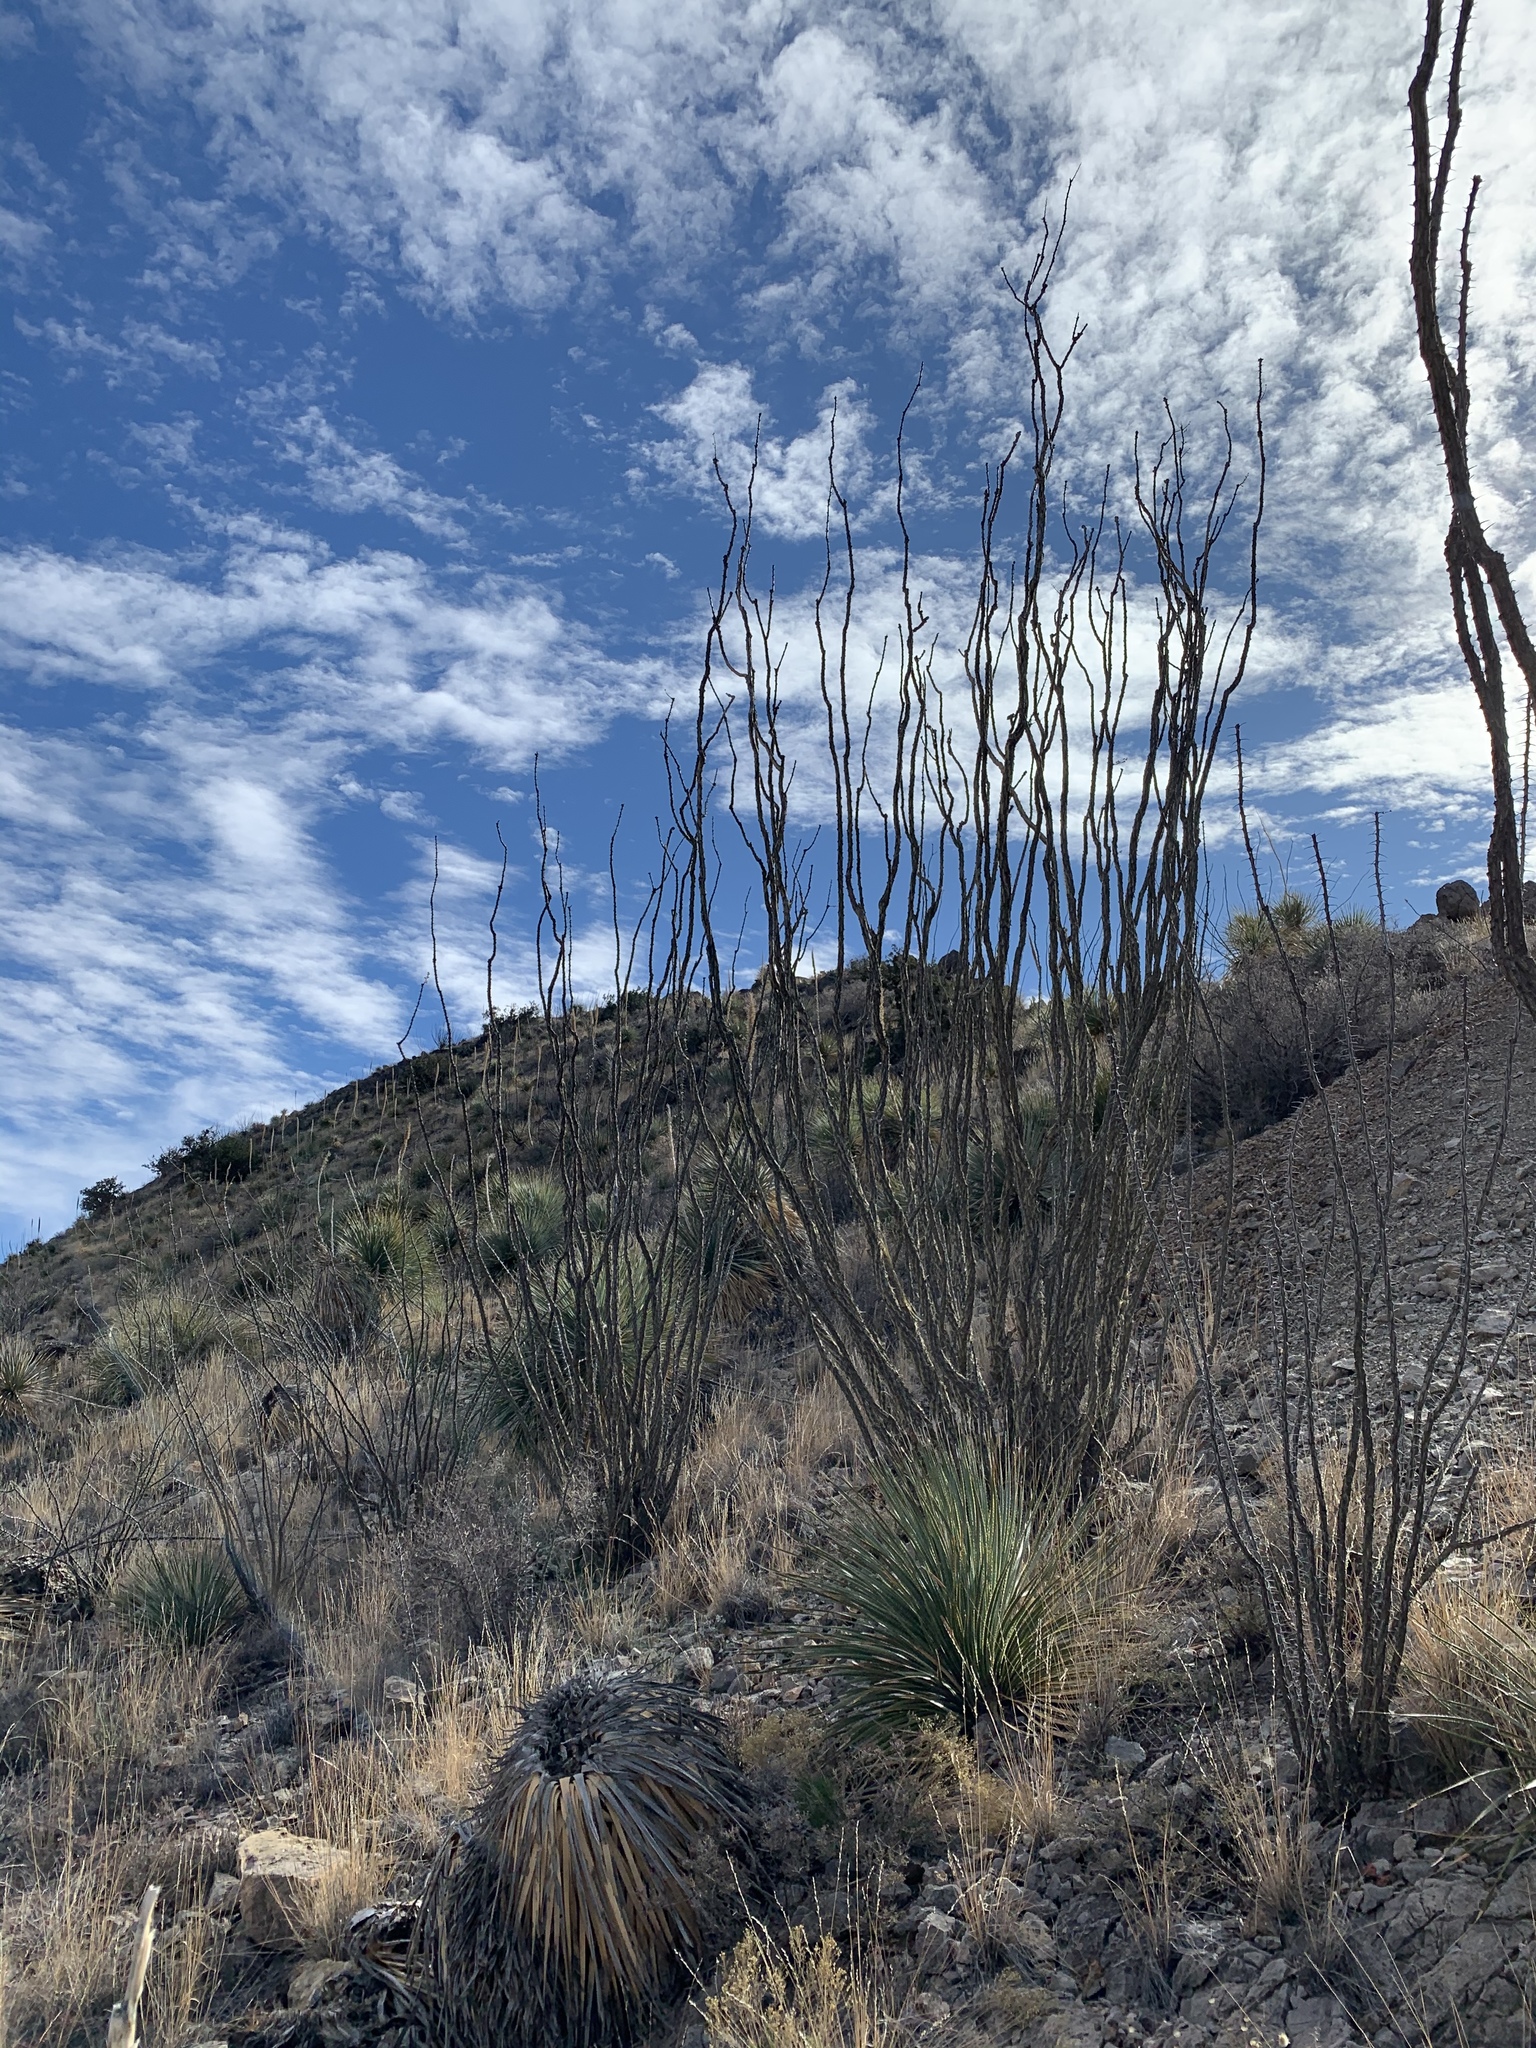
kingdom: Plantae
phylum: Tracheophyta
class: Magnoliopsida
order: Ericales
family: Fouquieriaceae
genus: Fouquieria
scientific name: Fouquieria splendens
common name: Vine-cactus
